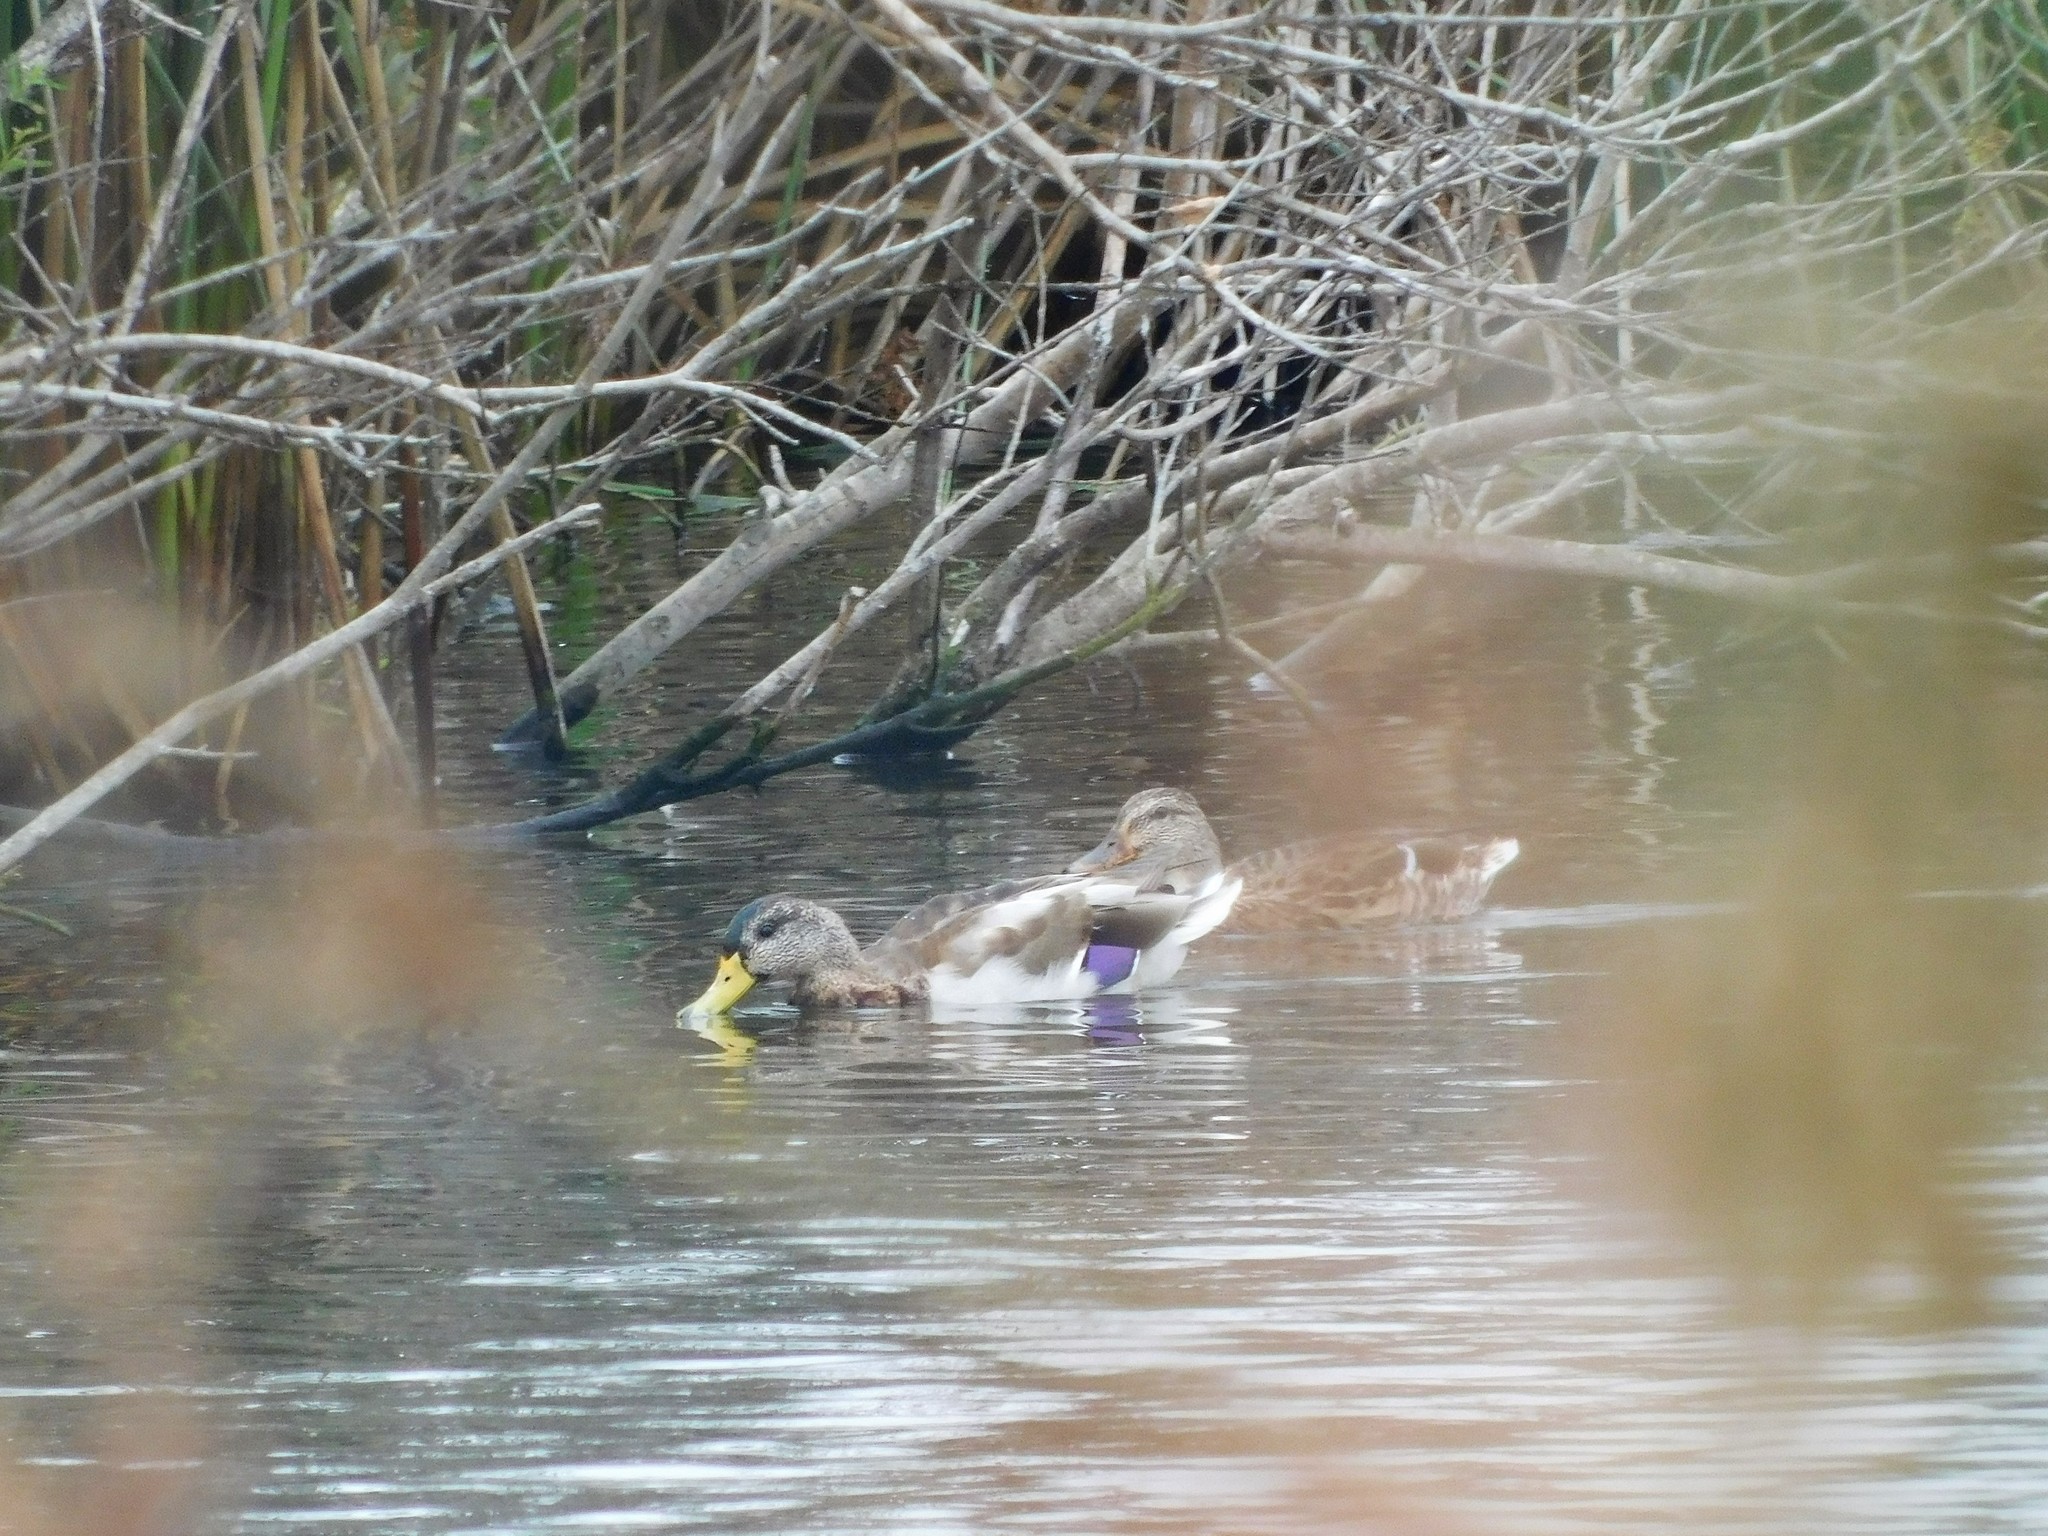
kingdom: Animalia
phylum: Chordata
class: Aves
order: Anseriformes
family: Anatidae
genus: Anas
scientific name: Anas platyrhynchos
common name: Mallard
